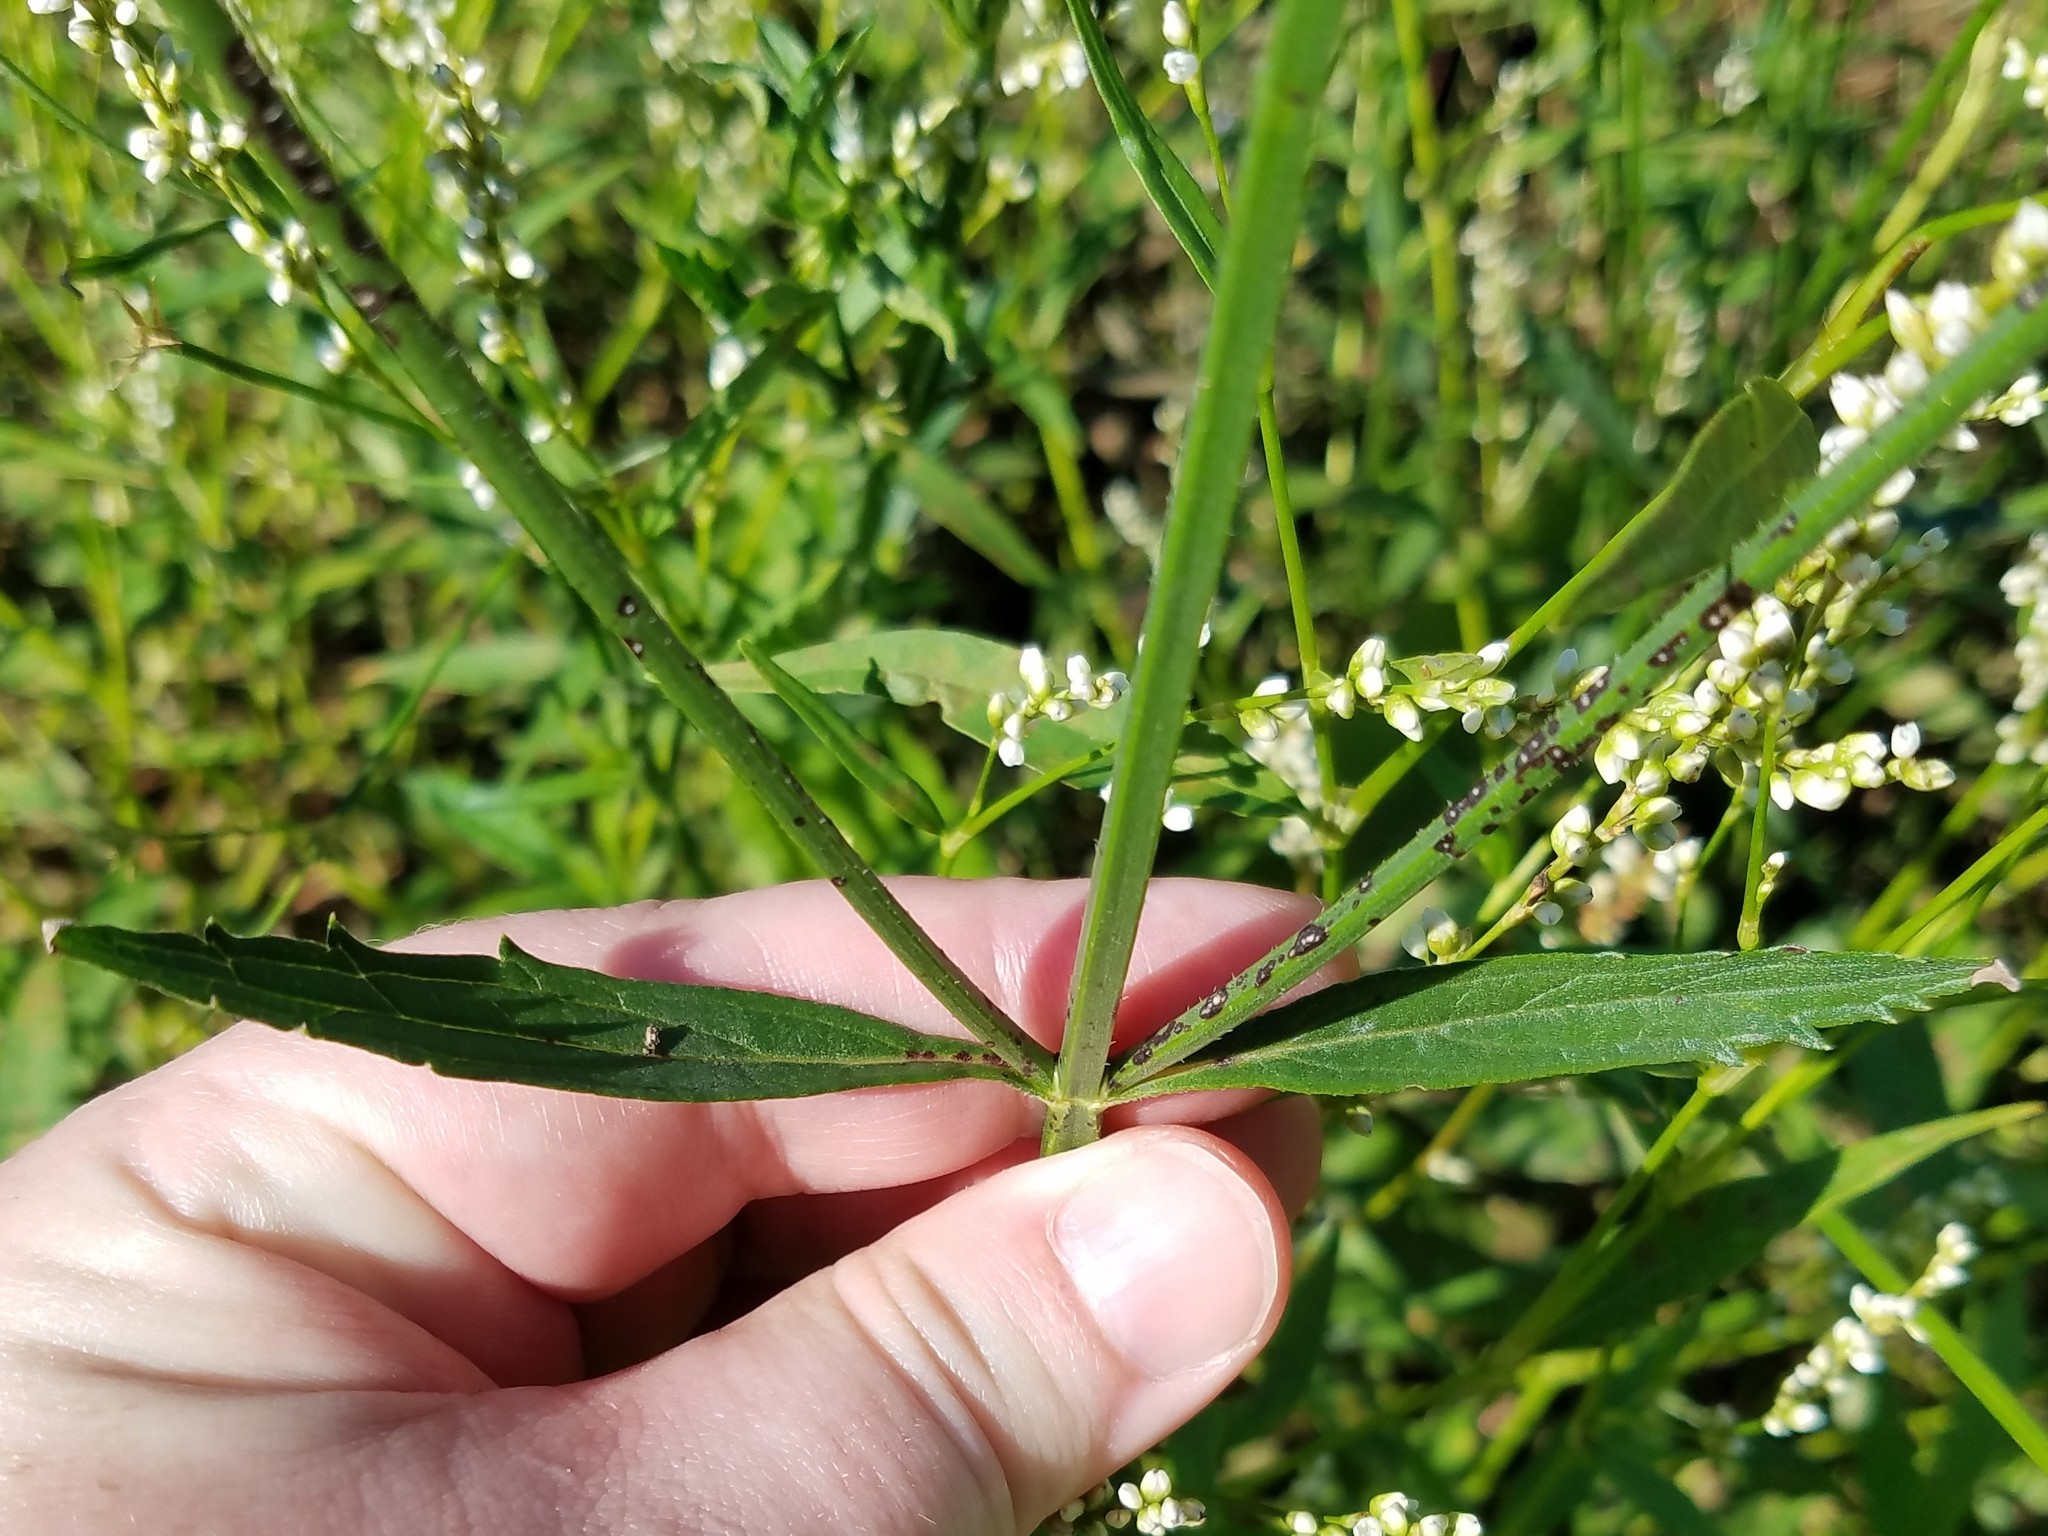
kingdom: Plantae
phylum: Tracheophyta
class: Magnoliopsida
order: Lamiales
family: Verbenaceae
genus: Verbena
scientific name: Verbena brasiliensis
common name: Brazilian vervain
